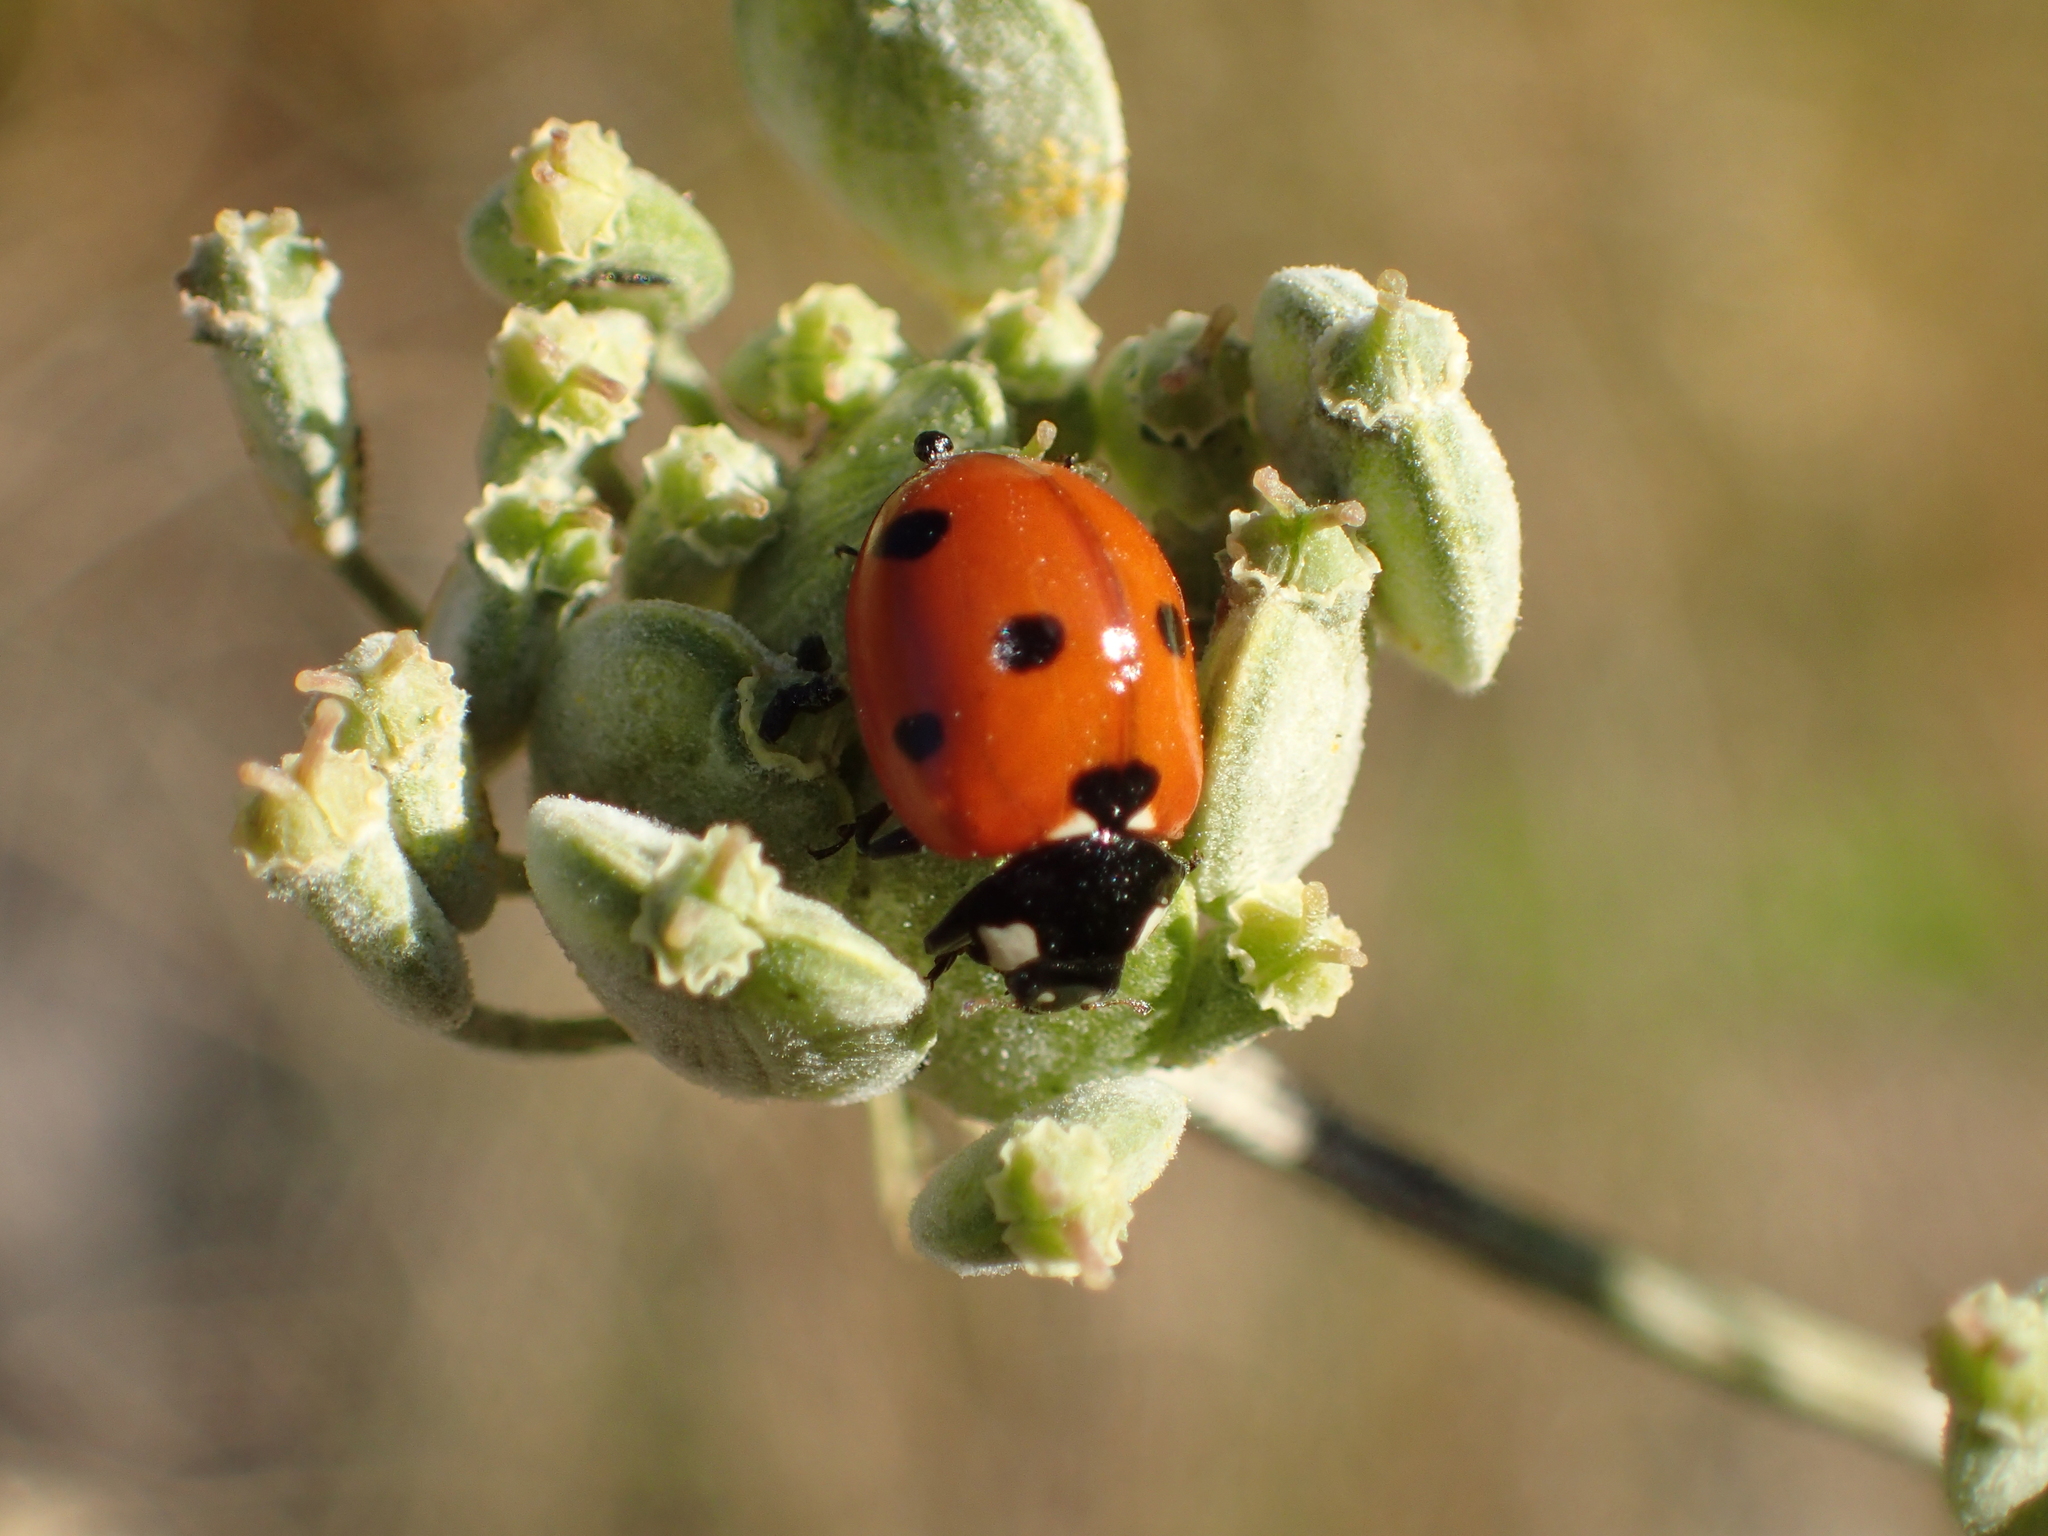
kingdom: Animalia
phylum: Arthropoda
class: Insecta
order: Coleoptera
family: Coccinellidae
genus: Coccinella
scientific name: Coccinella septempunctata
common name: Sevenspotted lady beetle
